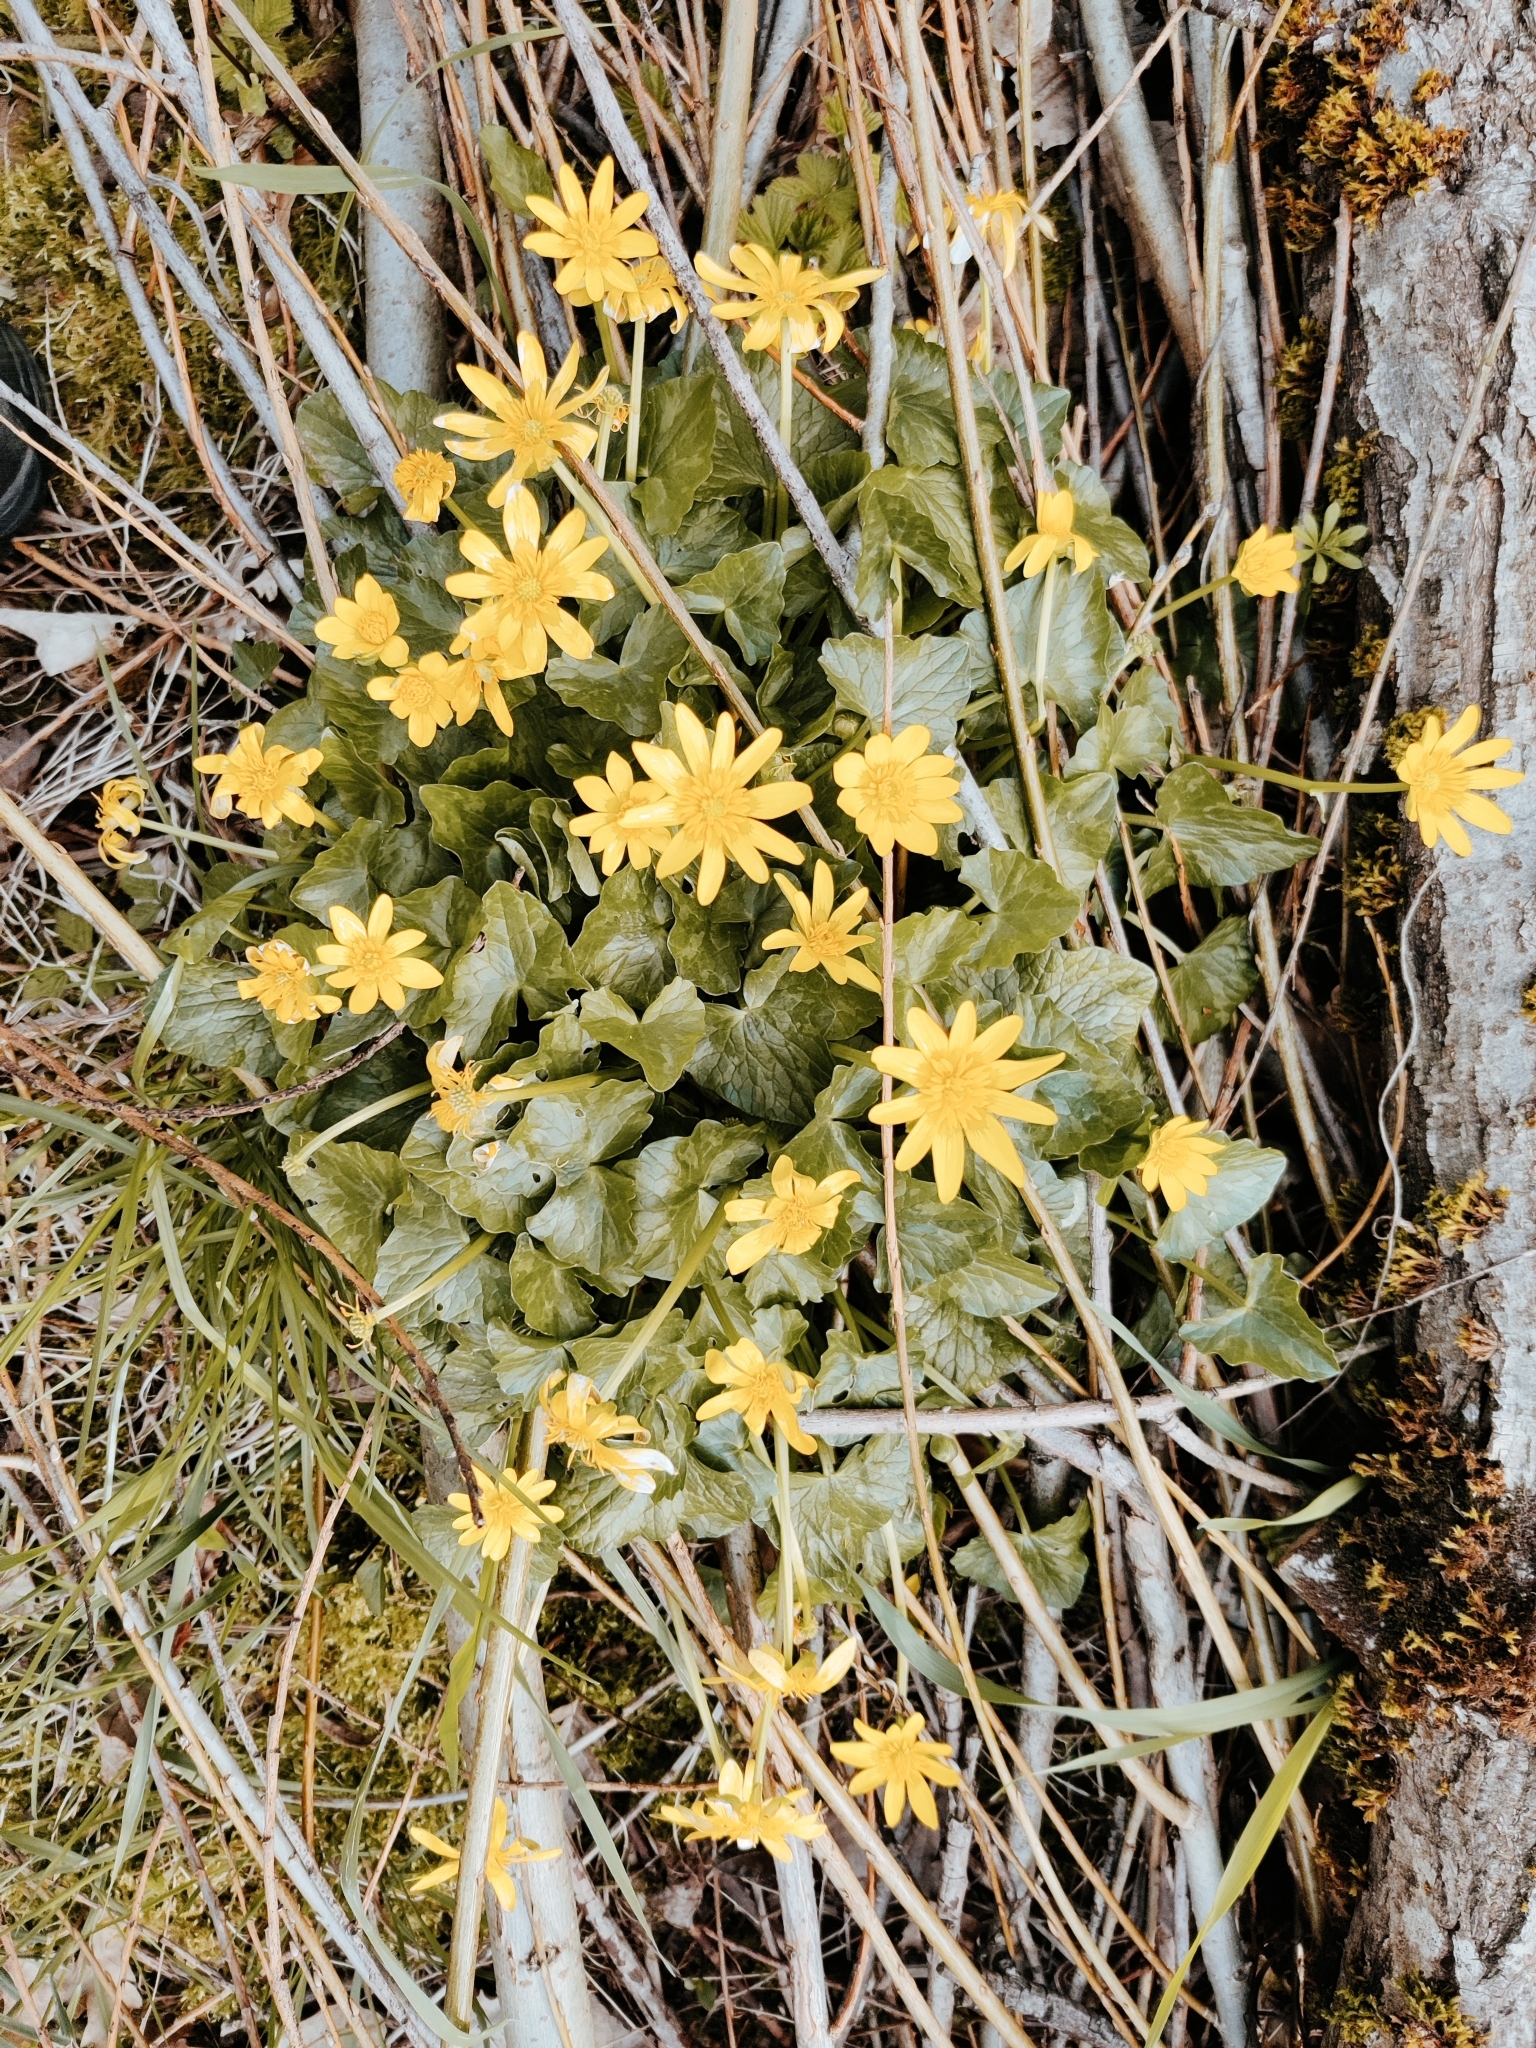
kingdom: Plantae
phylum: Tracheophyta
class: Magnoliopsida
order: Ranunculales
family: Ranunculaceae
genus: Ficaria
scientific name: Ficaria verna
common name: Lesser celandine
